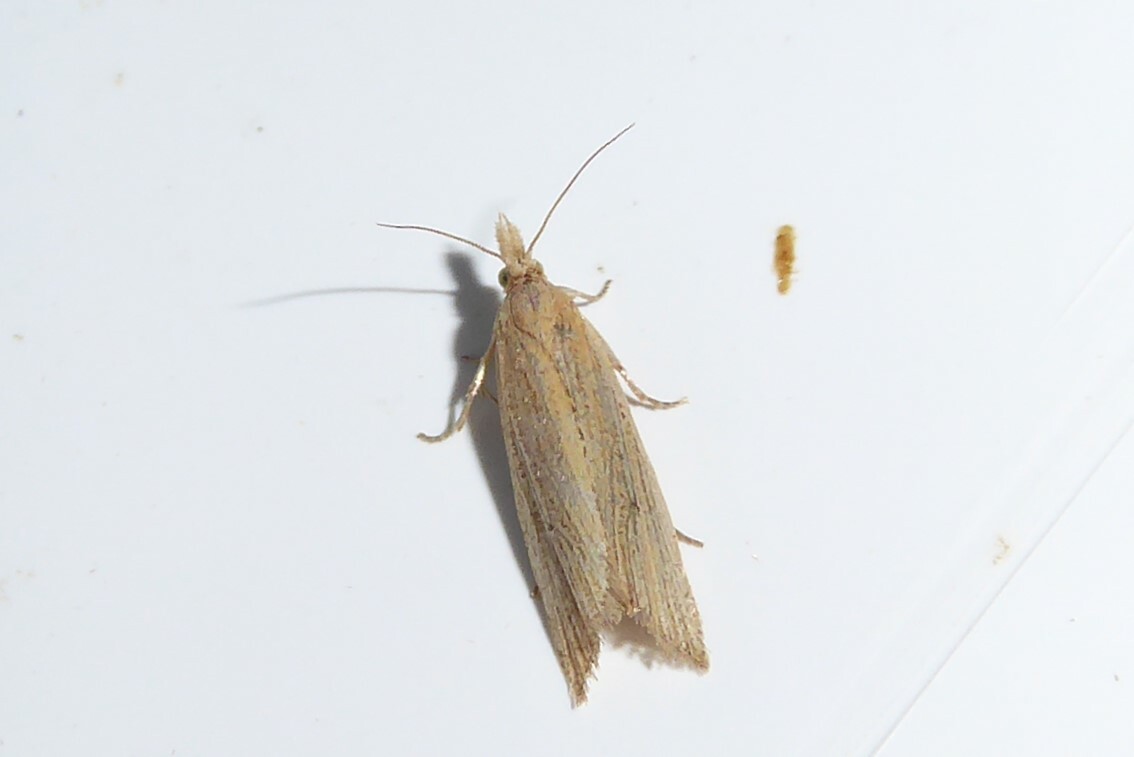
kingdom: Animalia
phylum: Arthropoda
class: Insecta
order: Lepidoptera
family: Tortricidae
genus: Bactra
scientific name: Bactra noteraula
